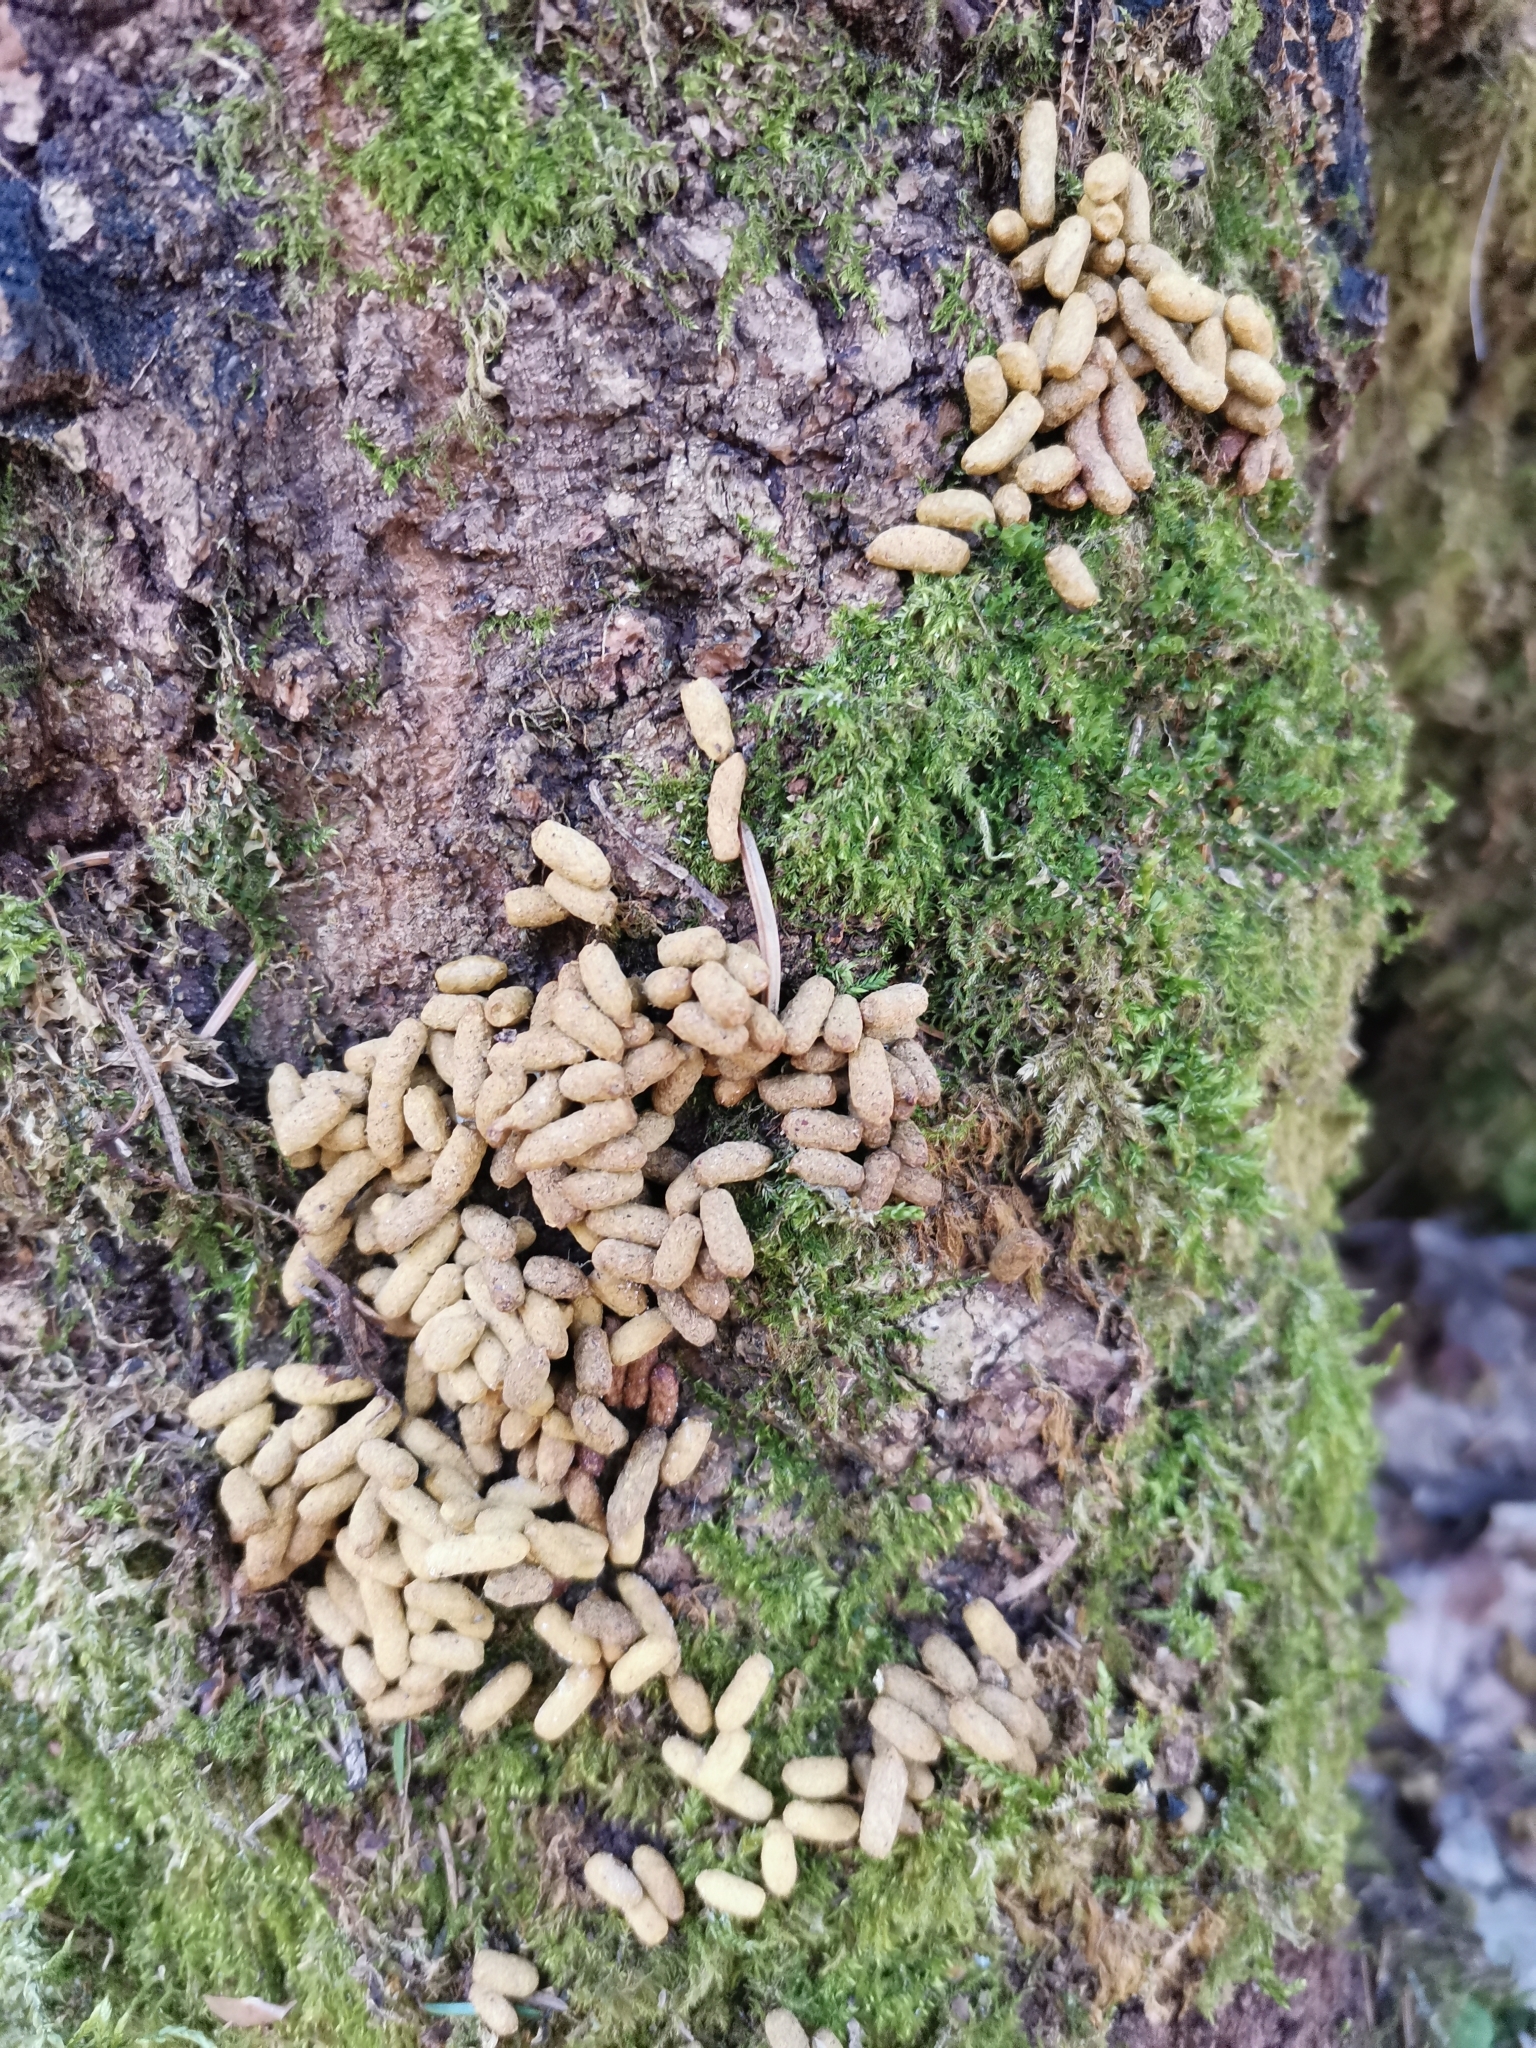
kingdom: Animalia
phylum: Chordata
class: Mammalia
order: Rodentia
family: Sciuridae
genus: Pteromys
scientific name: Pteromys volans
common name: Siberian flying squirrel
